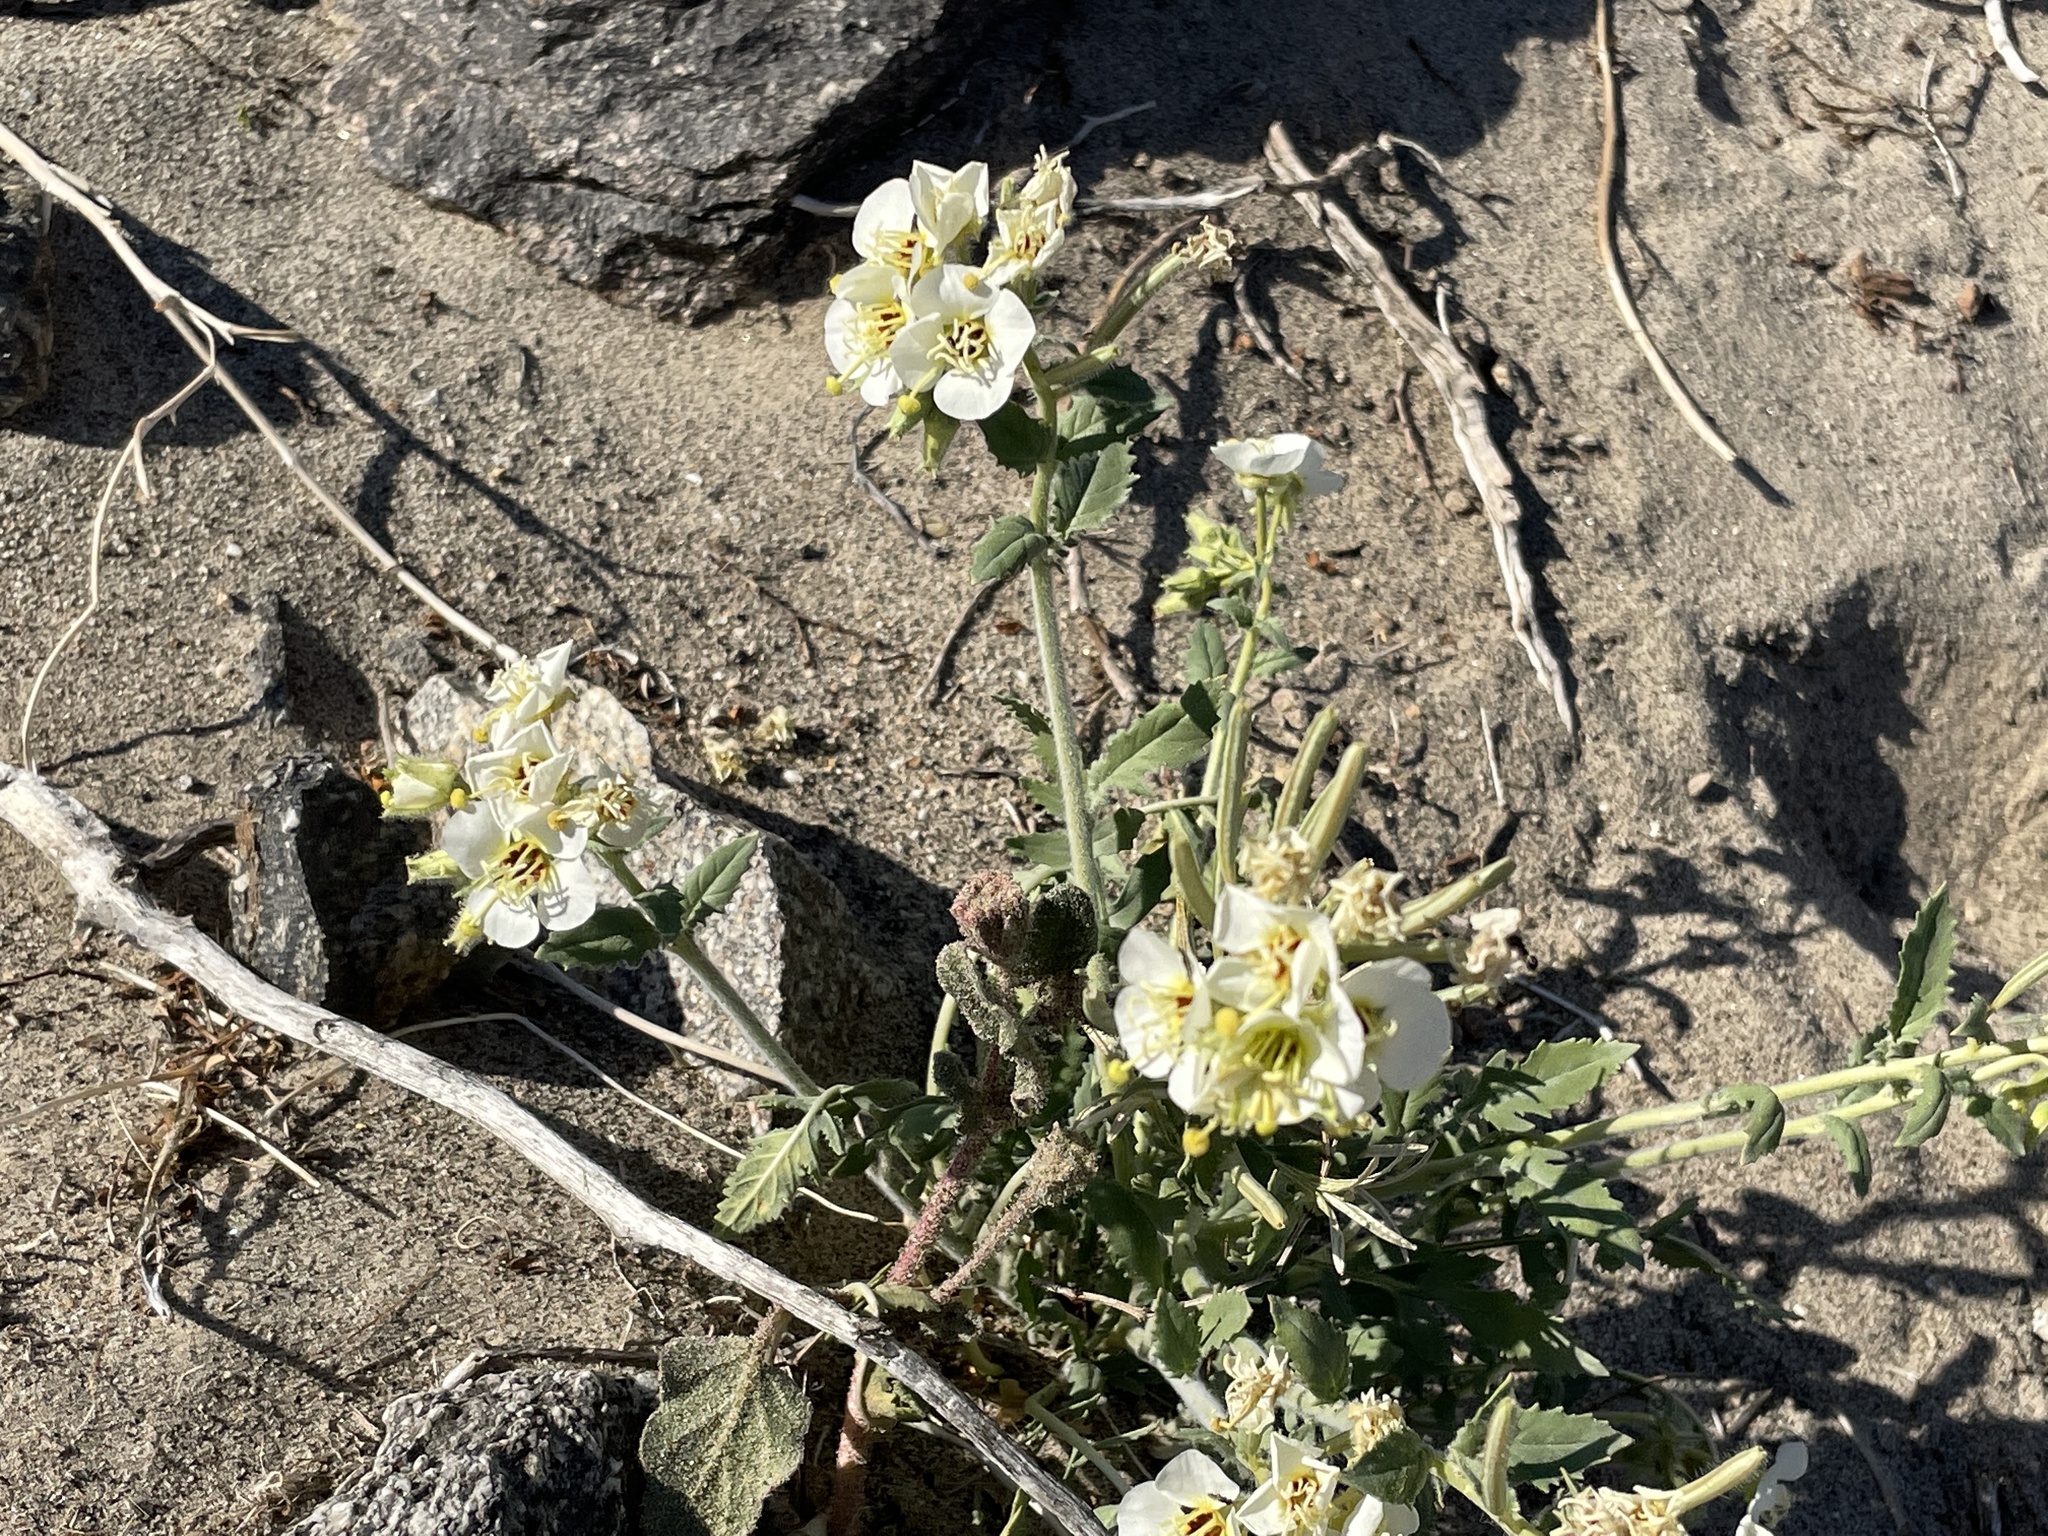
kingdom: Plantae
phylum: Tracheophyta
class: Magnoliopsida
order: Myrtales
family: Onagraceae
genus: Chylismia
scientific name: Chylismia claviformis
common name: Browneyes
